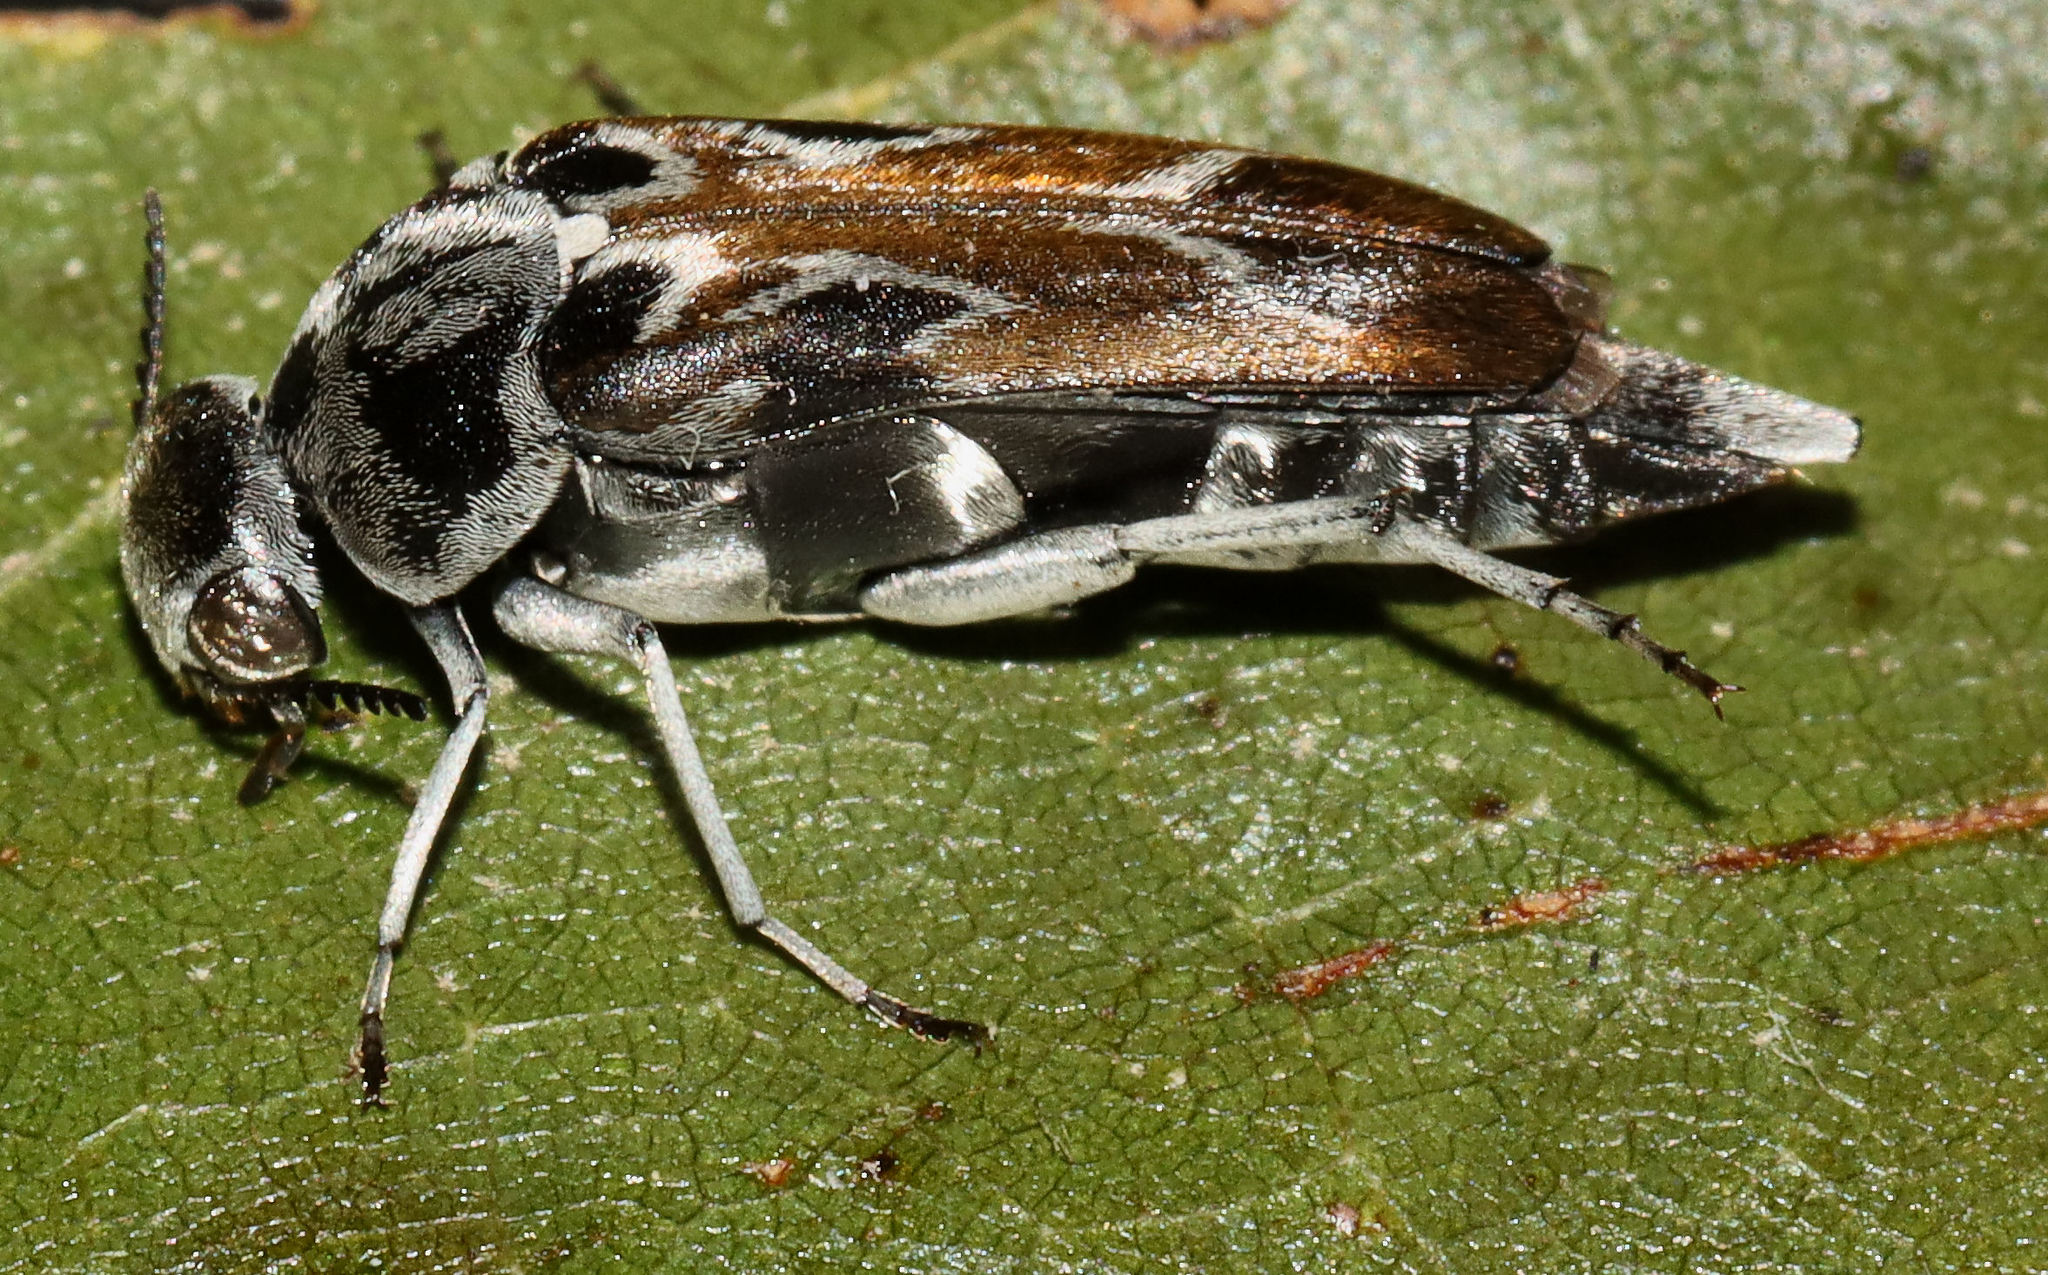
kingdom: Animalia
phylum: Arthropoda
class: Insecta
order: Coleoptera
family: Mordellidae
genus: Glipa
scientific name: Glipa hilaris
